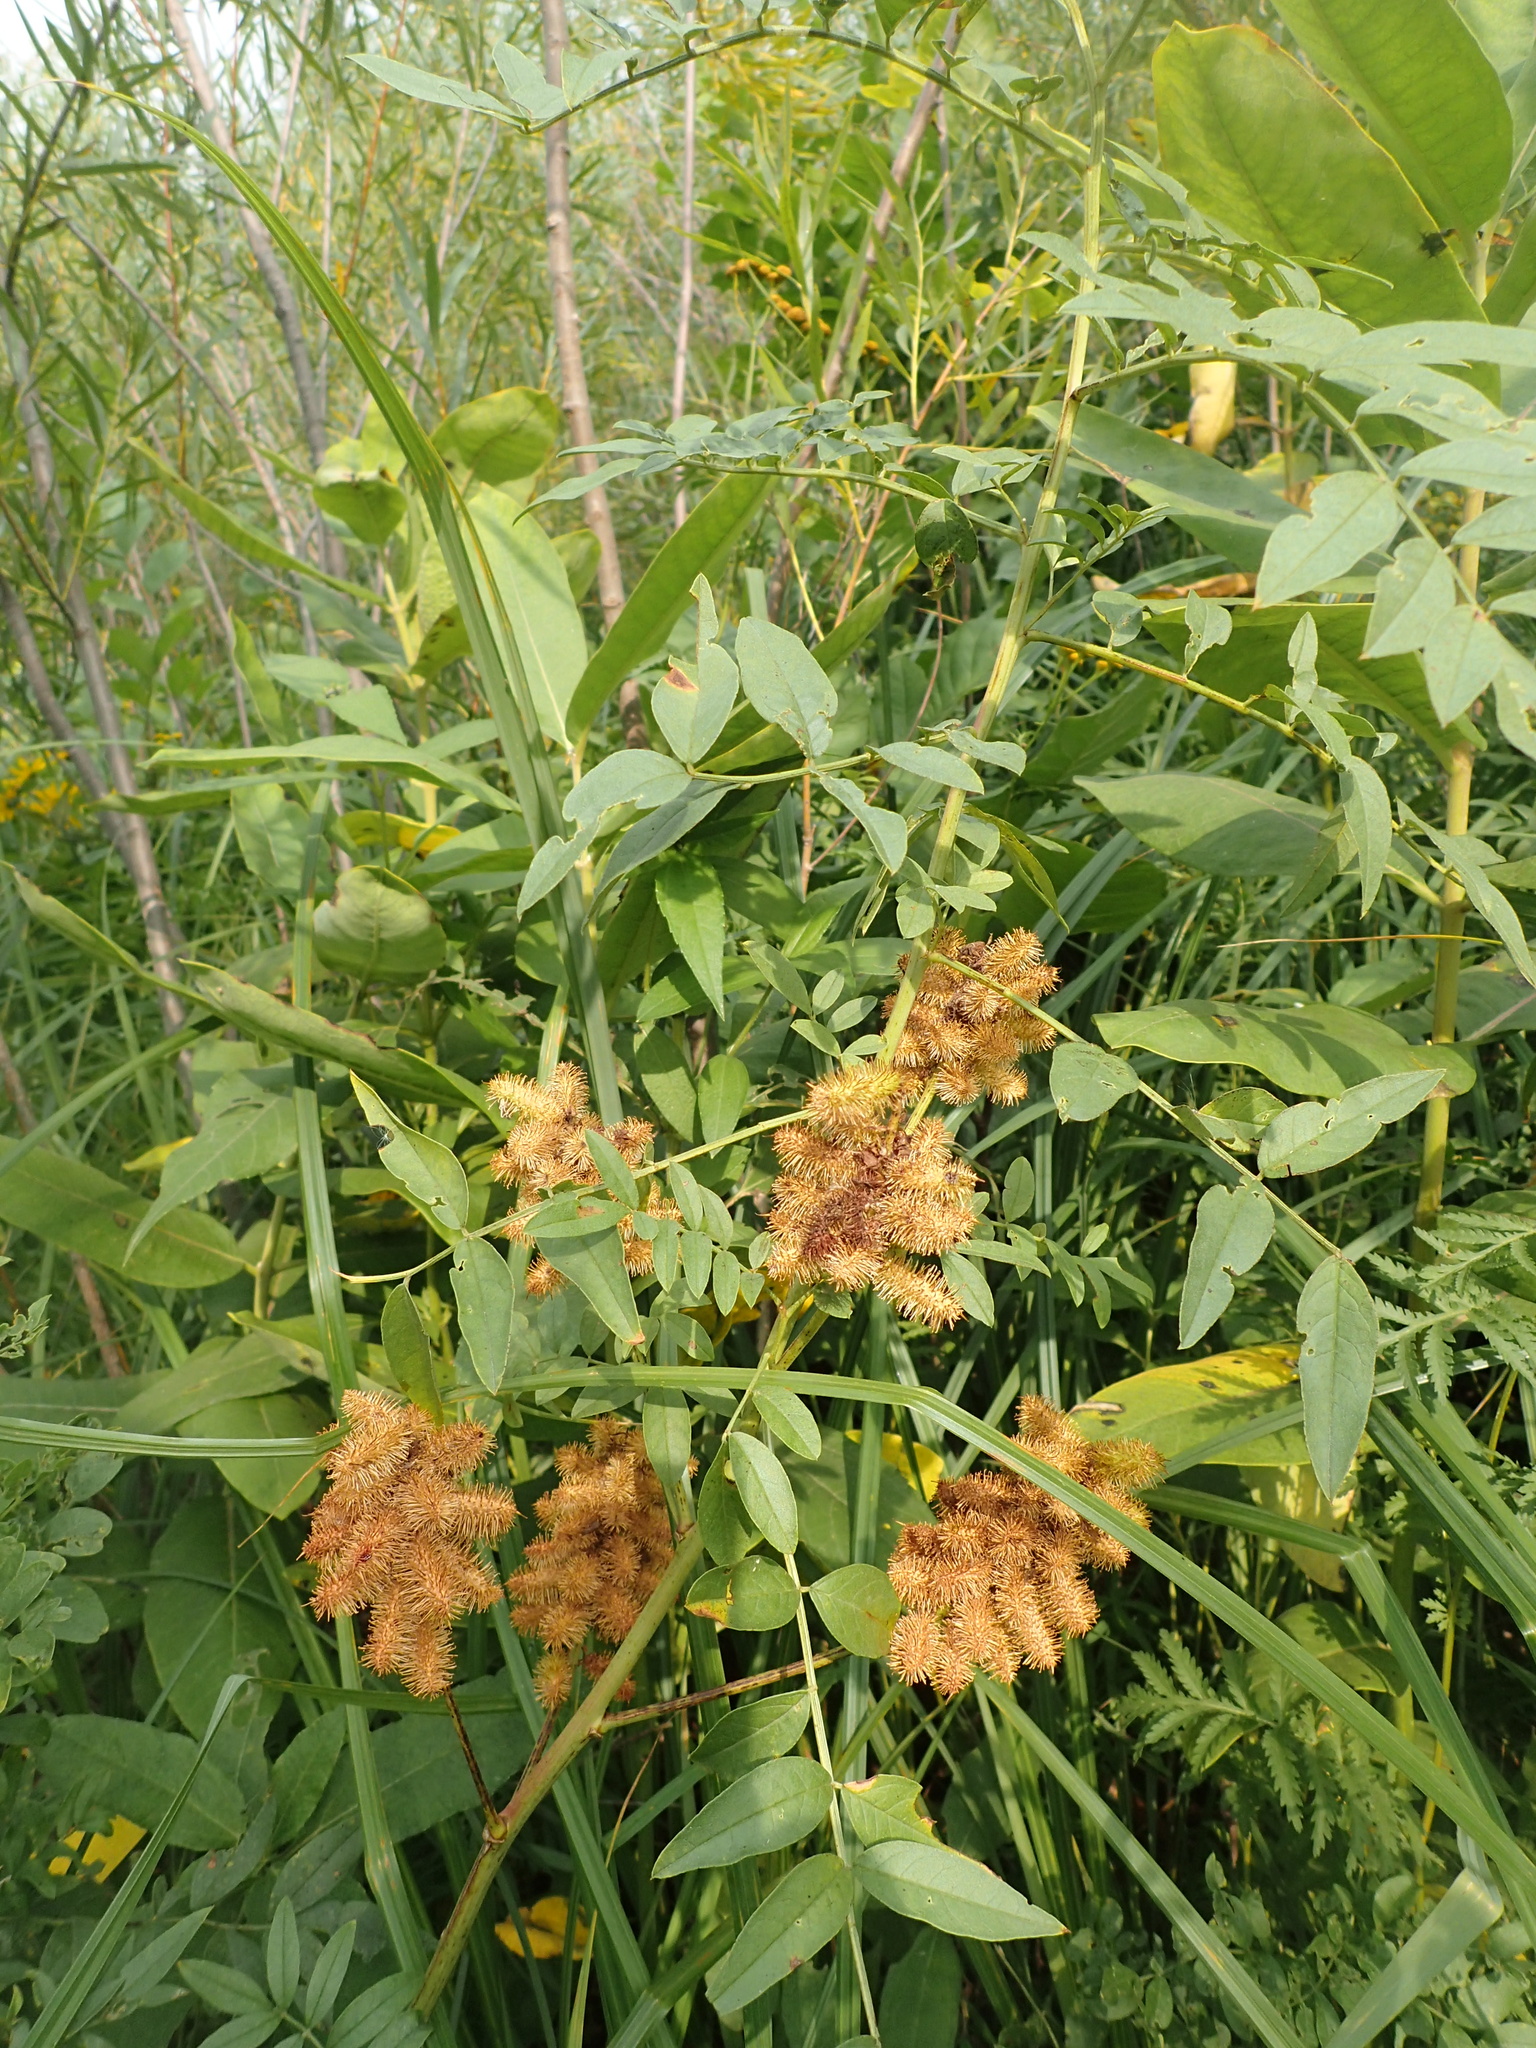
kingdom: Plantae
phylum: Tracheophyta
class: Magnoliopsida
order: Fabales
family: Fabaceae
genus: Glycyrrhiza
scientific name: Glycyrrhiza lepidota
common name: American liquorice
